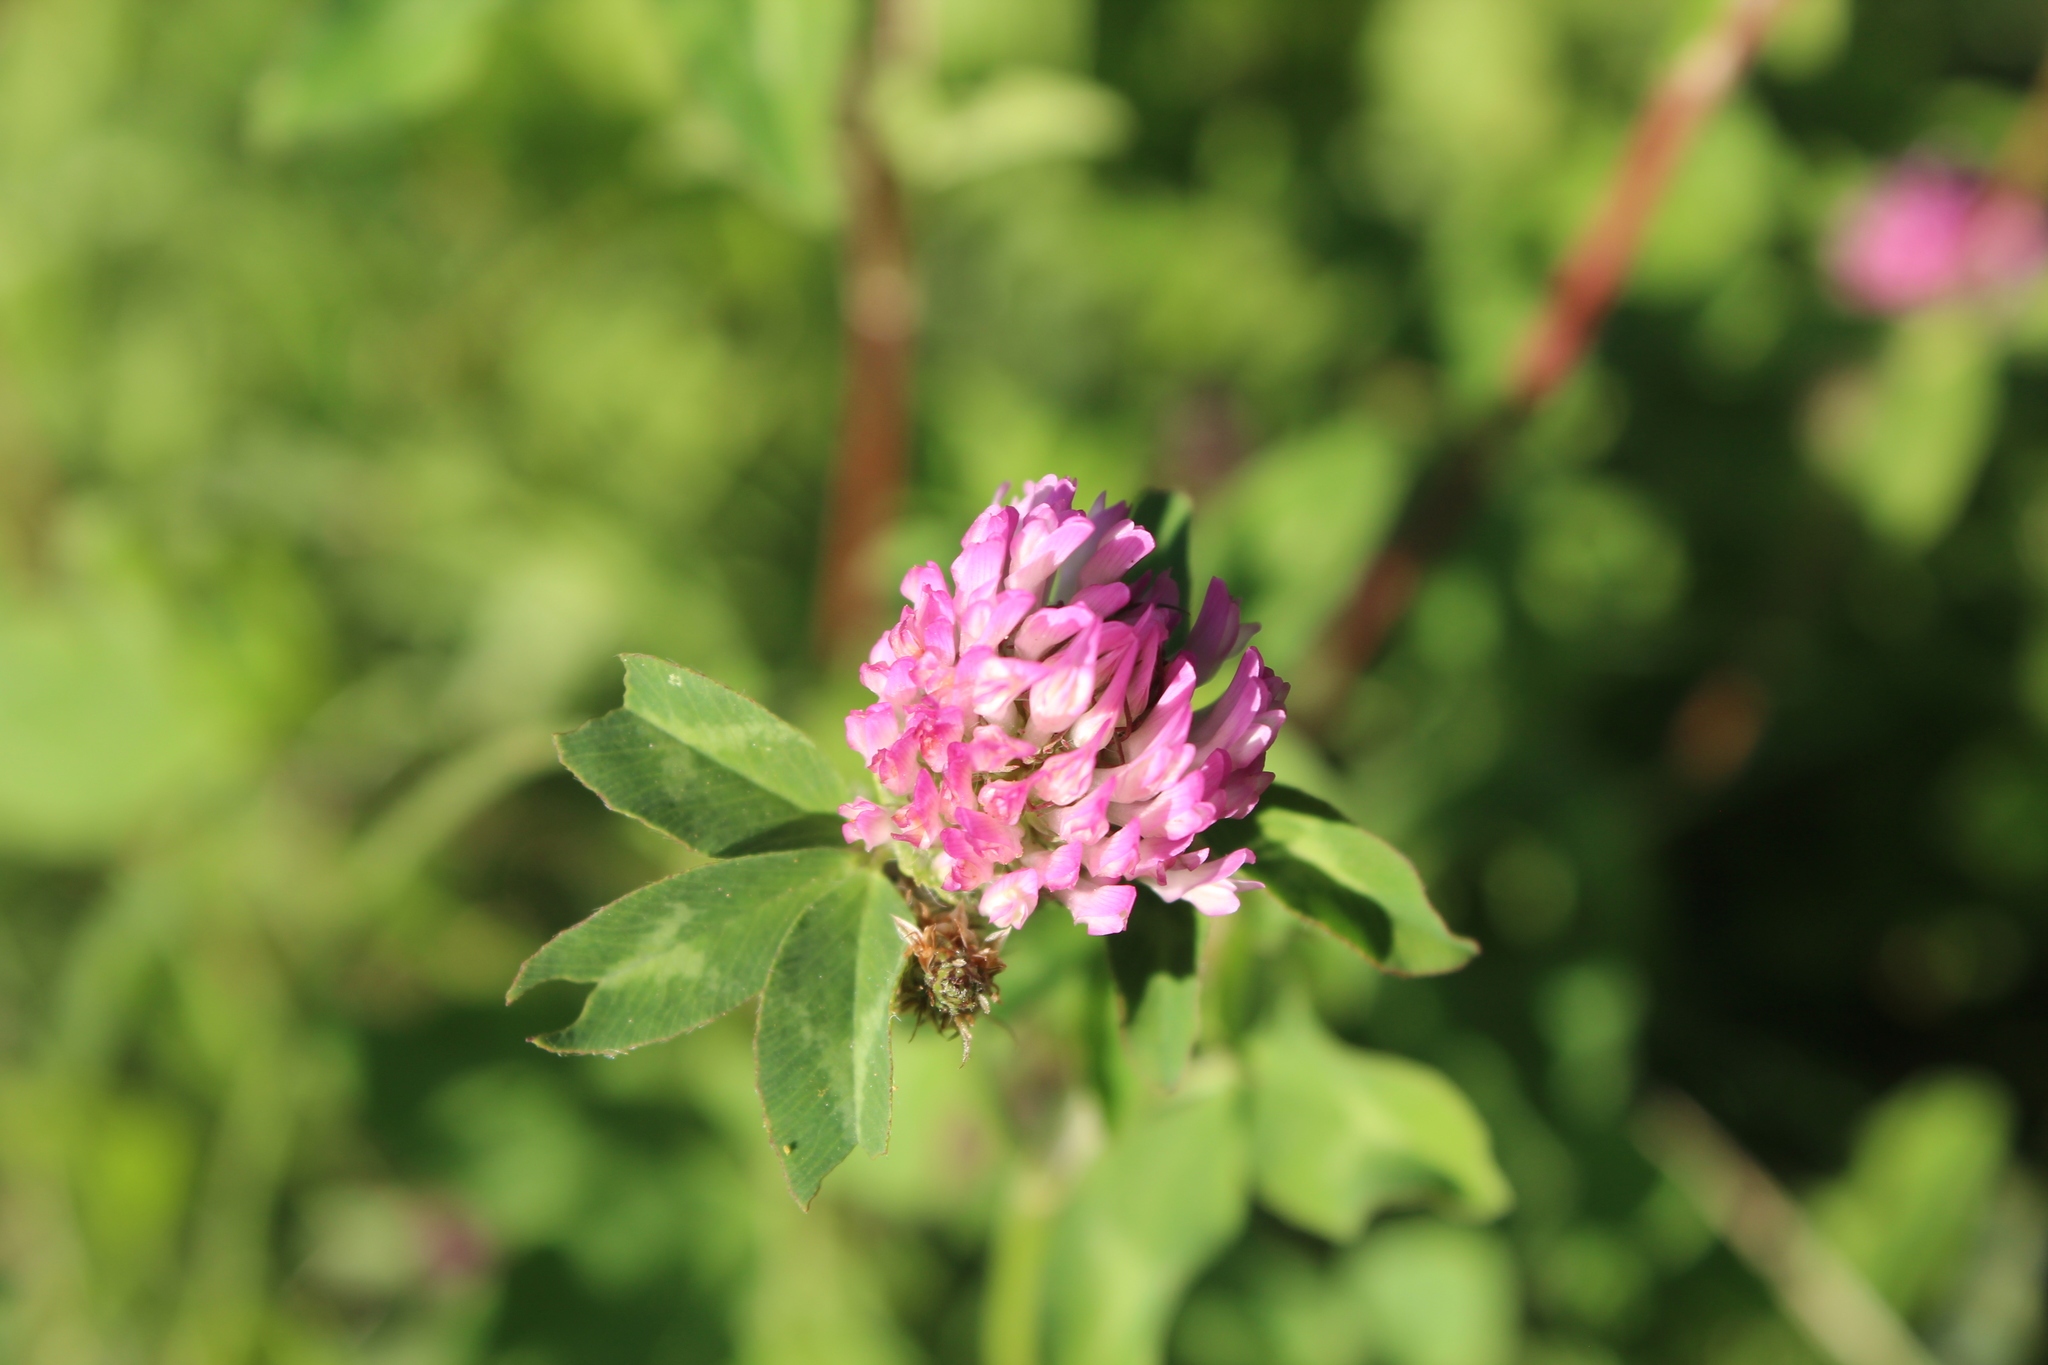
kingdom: Plantae
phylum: Tracheophyta
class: Magnoliopsida
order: Fabales
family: Fabaceae
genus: Trifolium
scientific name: Trifolium pratense
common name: Red clover
